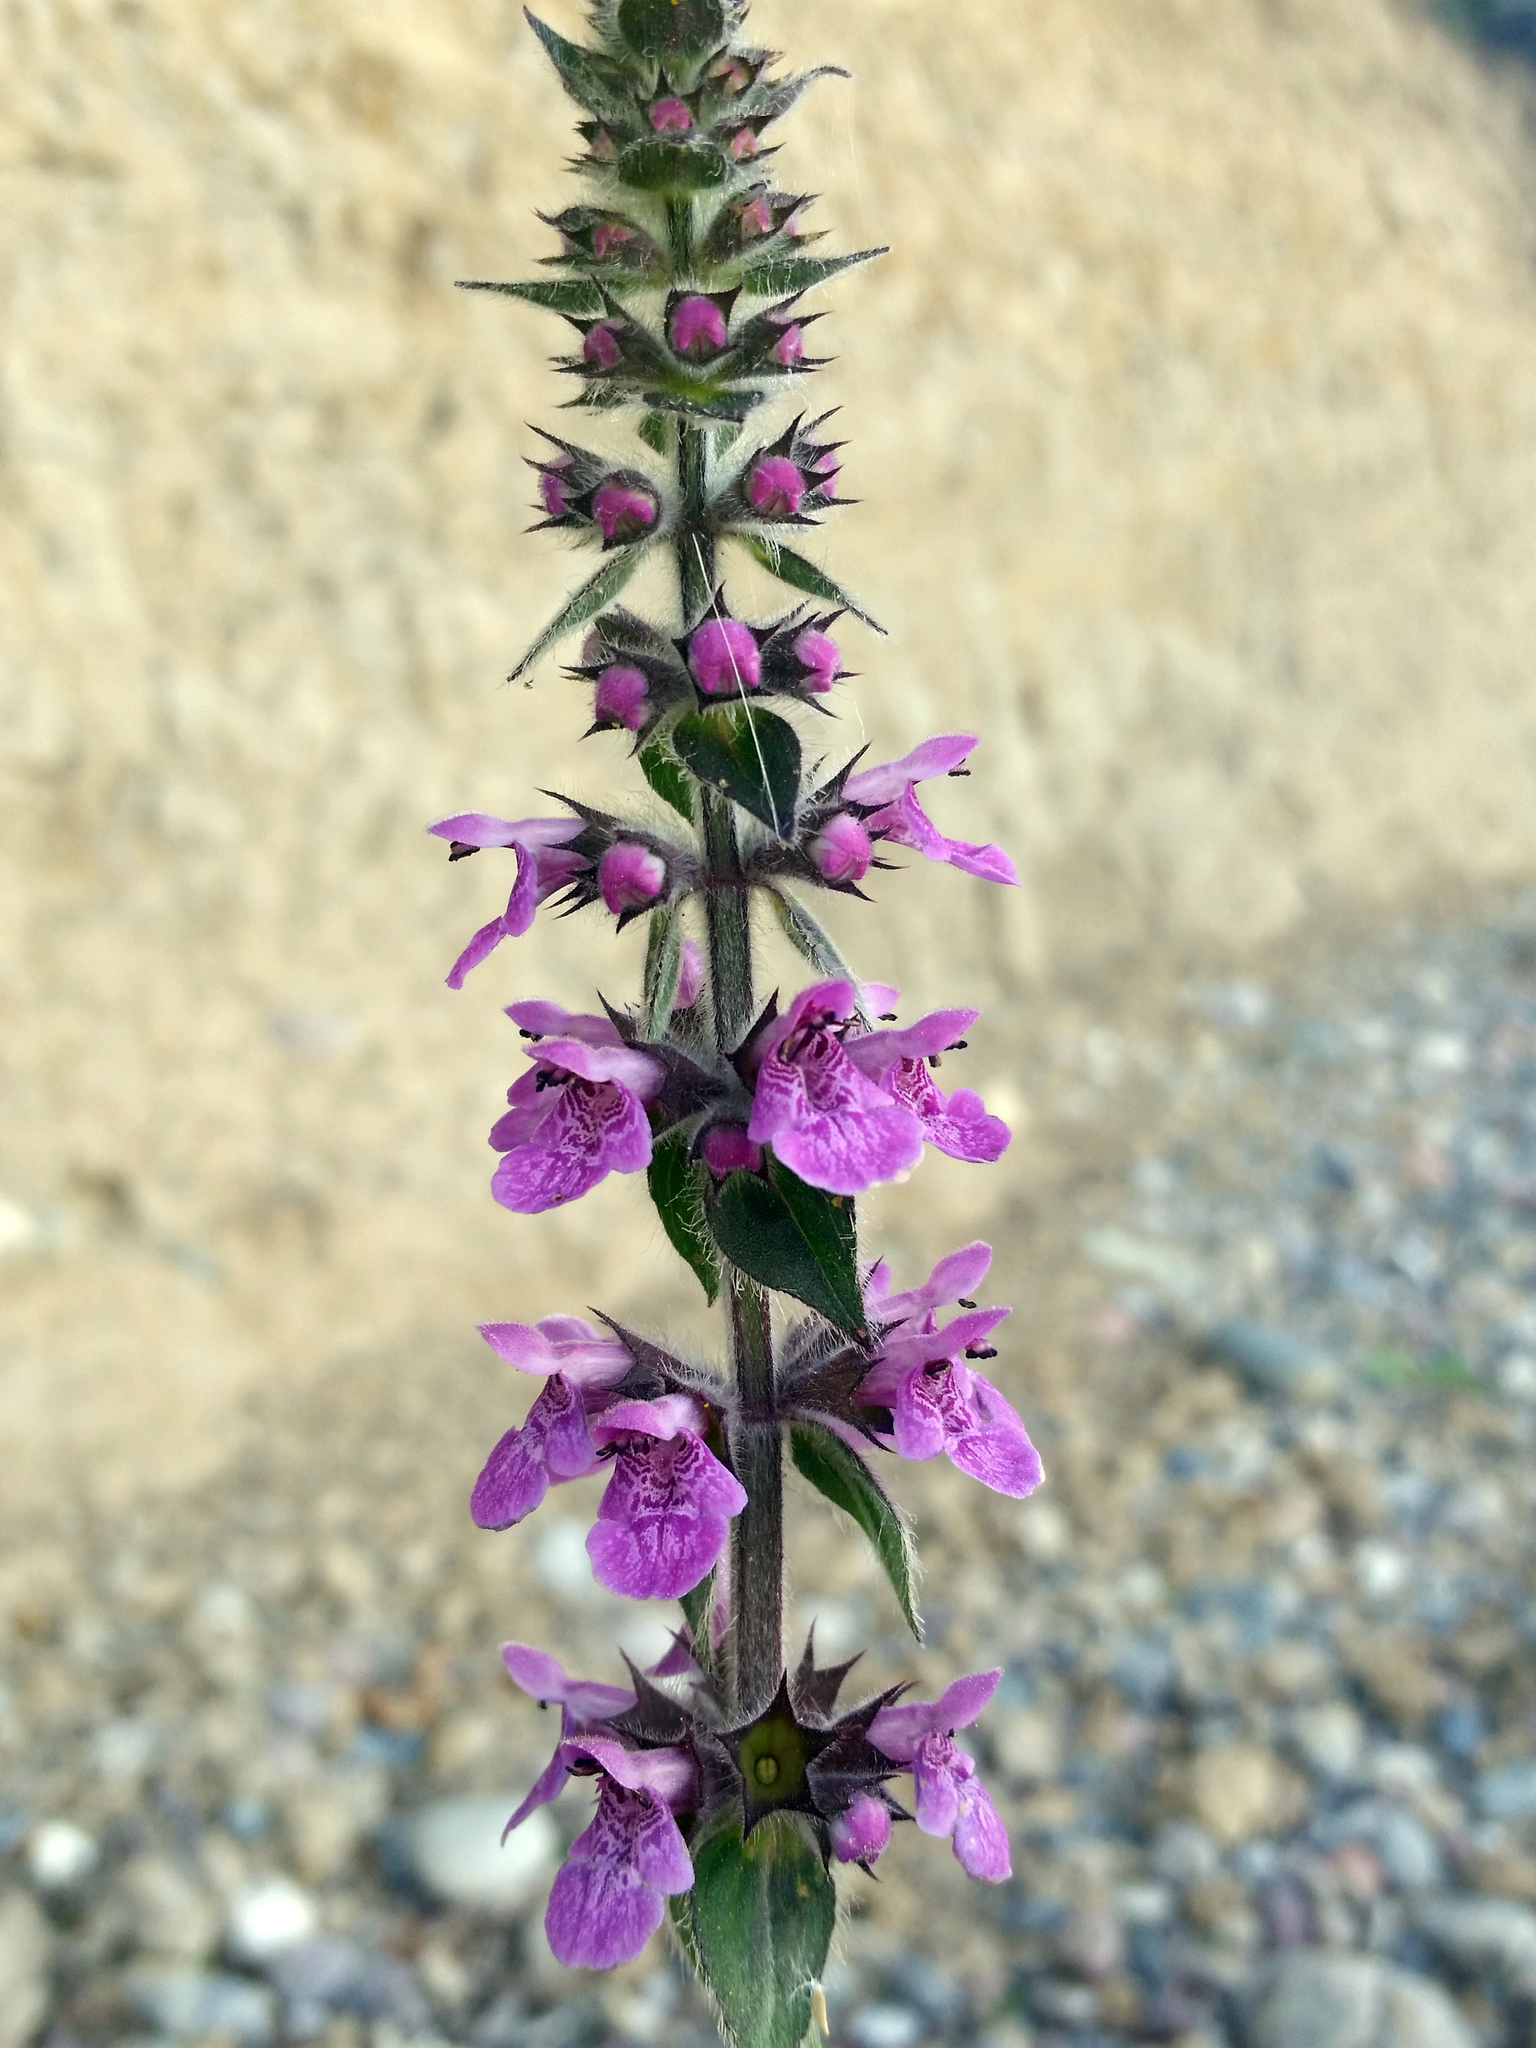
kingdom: Plantae
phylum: Tracheophyta
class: Magnoliopsida
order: Lamiales
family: Lamiaceae
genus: Stachys
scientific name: Stachys palustris
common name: Marsh woundwort
